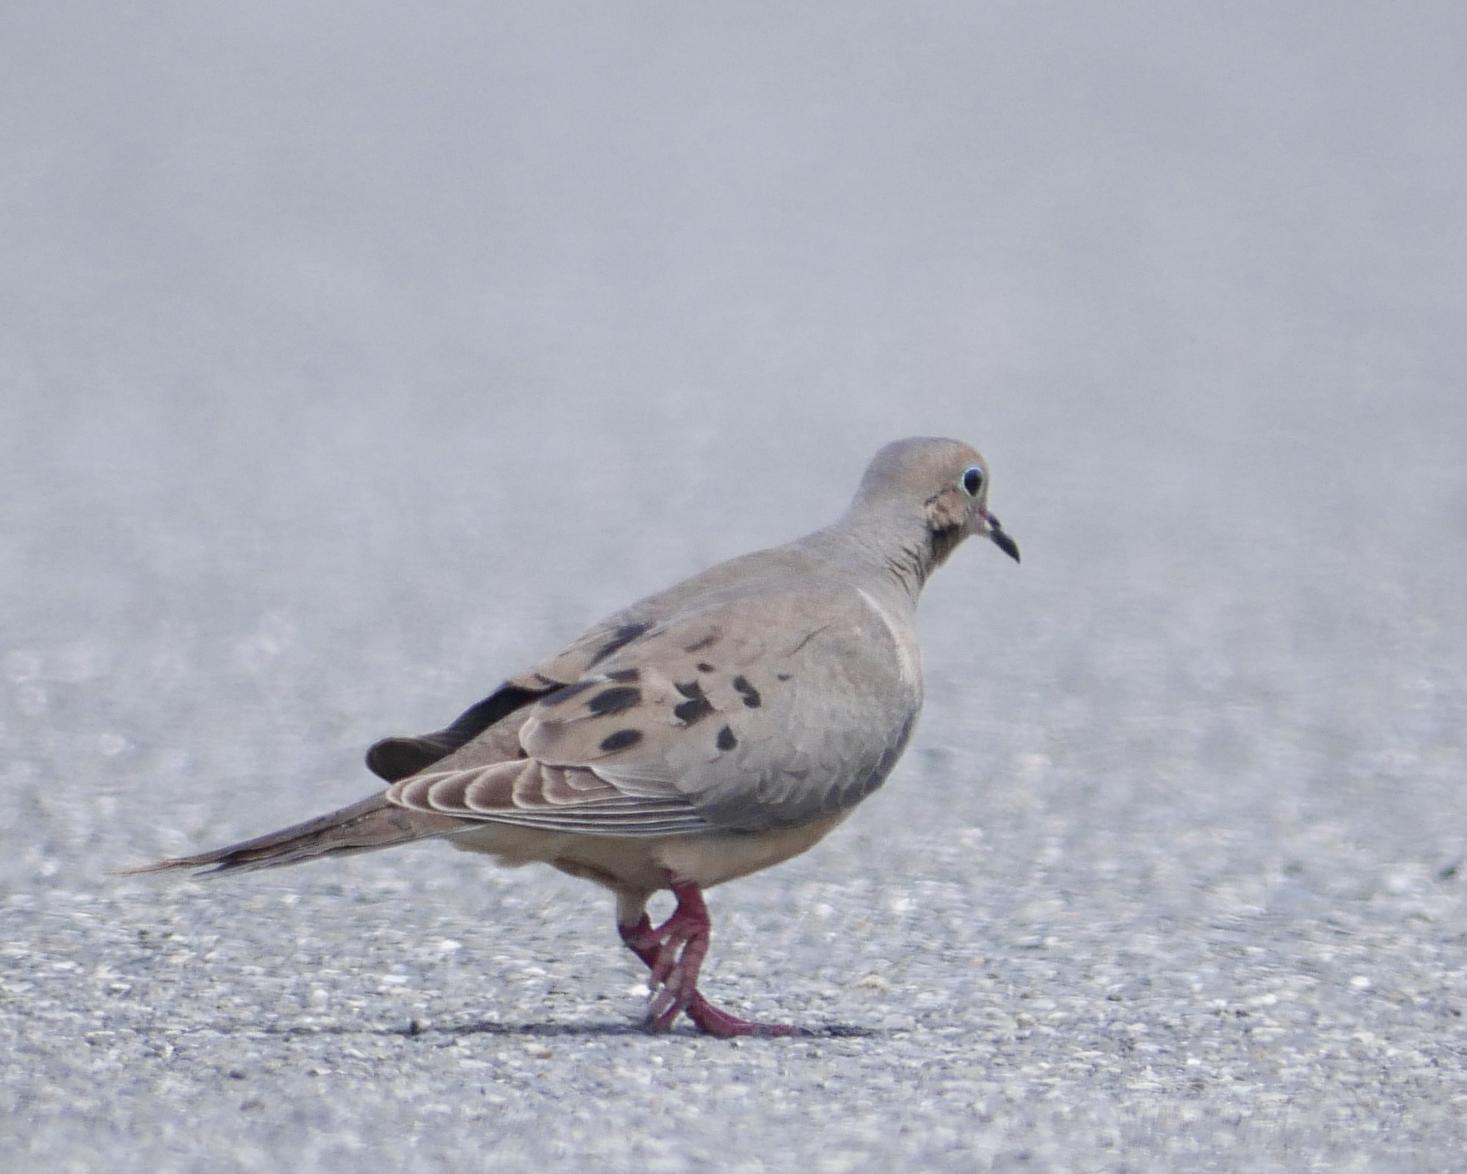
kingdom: Animalia
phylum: Chordata
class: Aves
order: Columbiformes
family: Columbidae
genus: Zenaida
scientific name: Zenaida macroura
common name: Mourning dove
